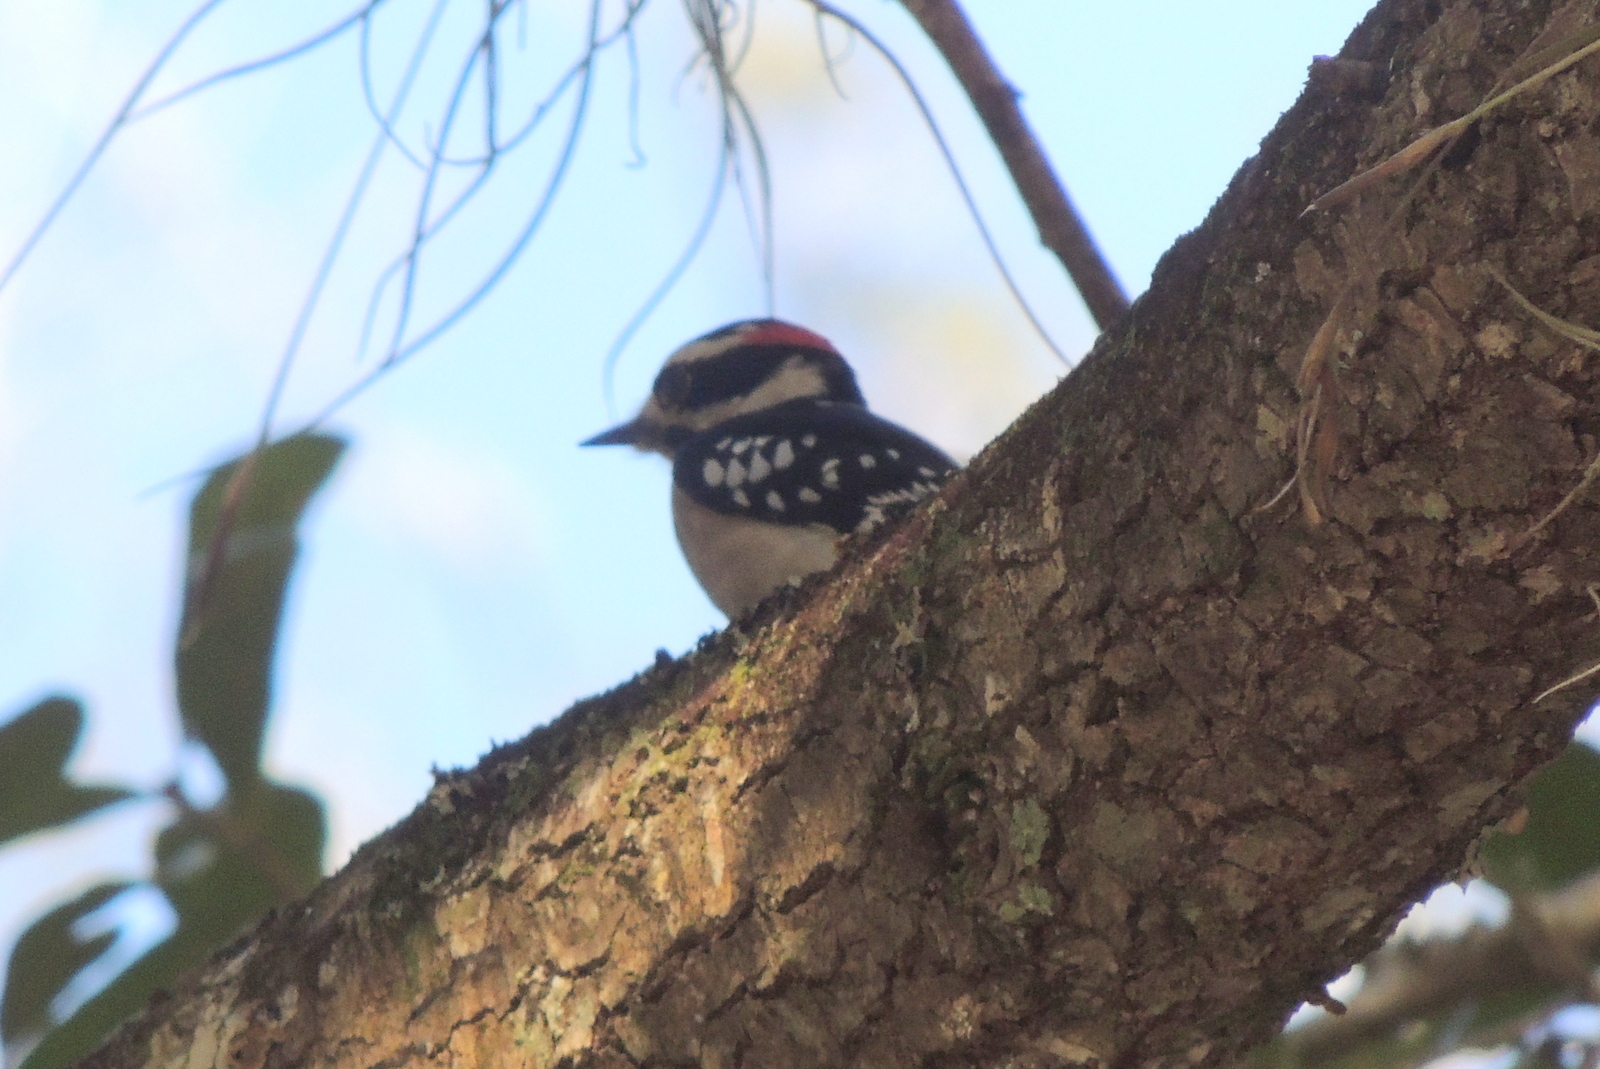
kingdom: Animalia
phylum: Chordata
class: Aves
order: Piciformes
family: Picidae
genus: Dryobates
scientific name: Dryobates pubescens
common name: Downy woodpecker
